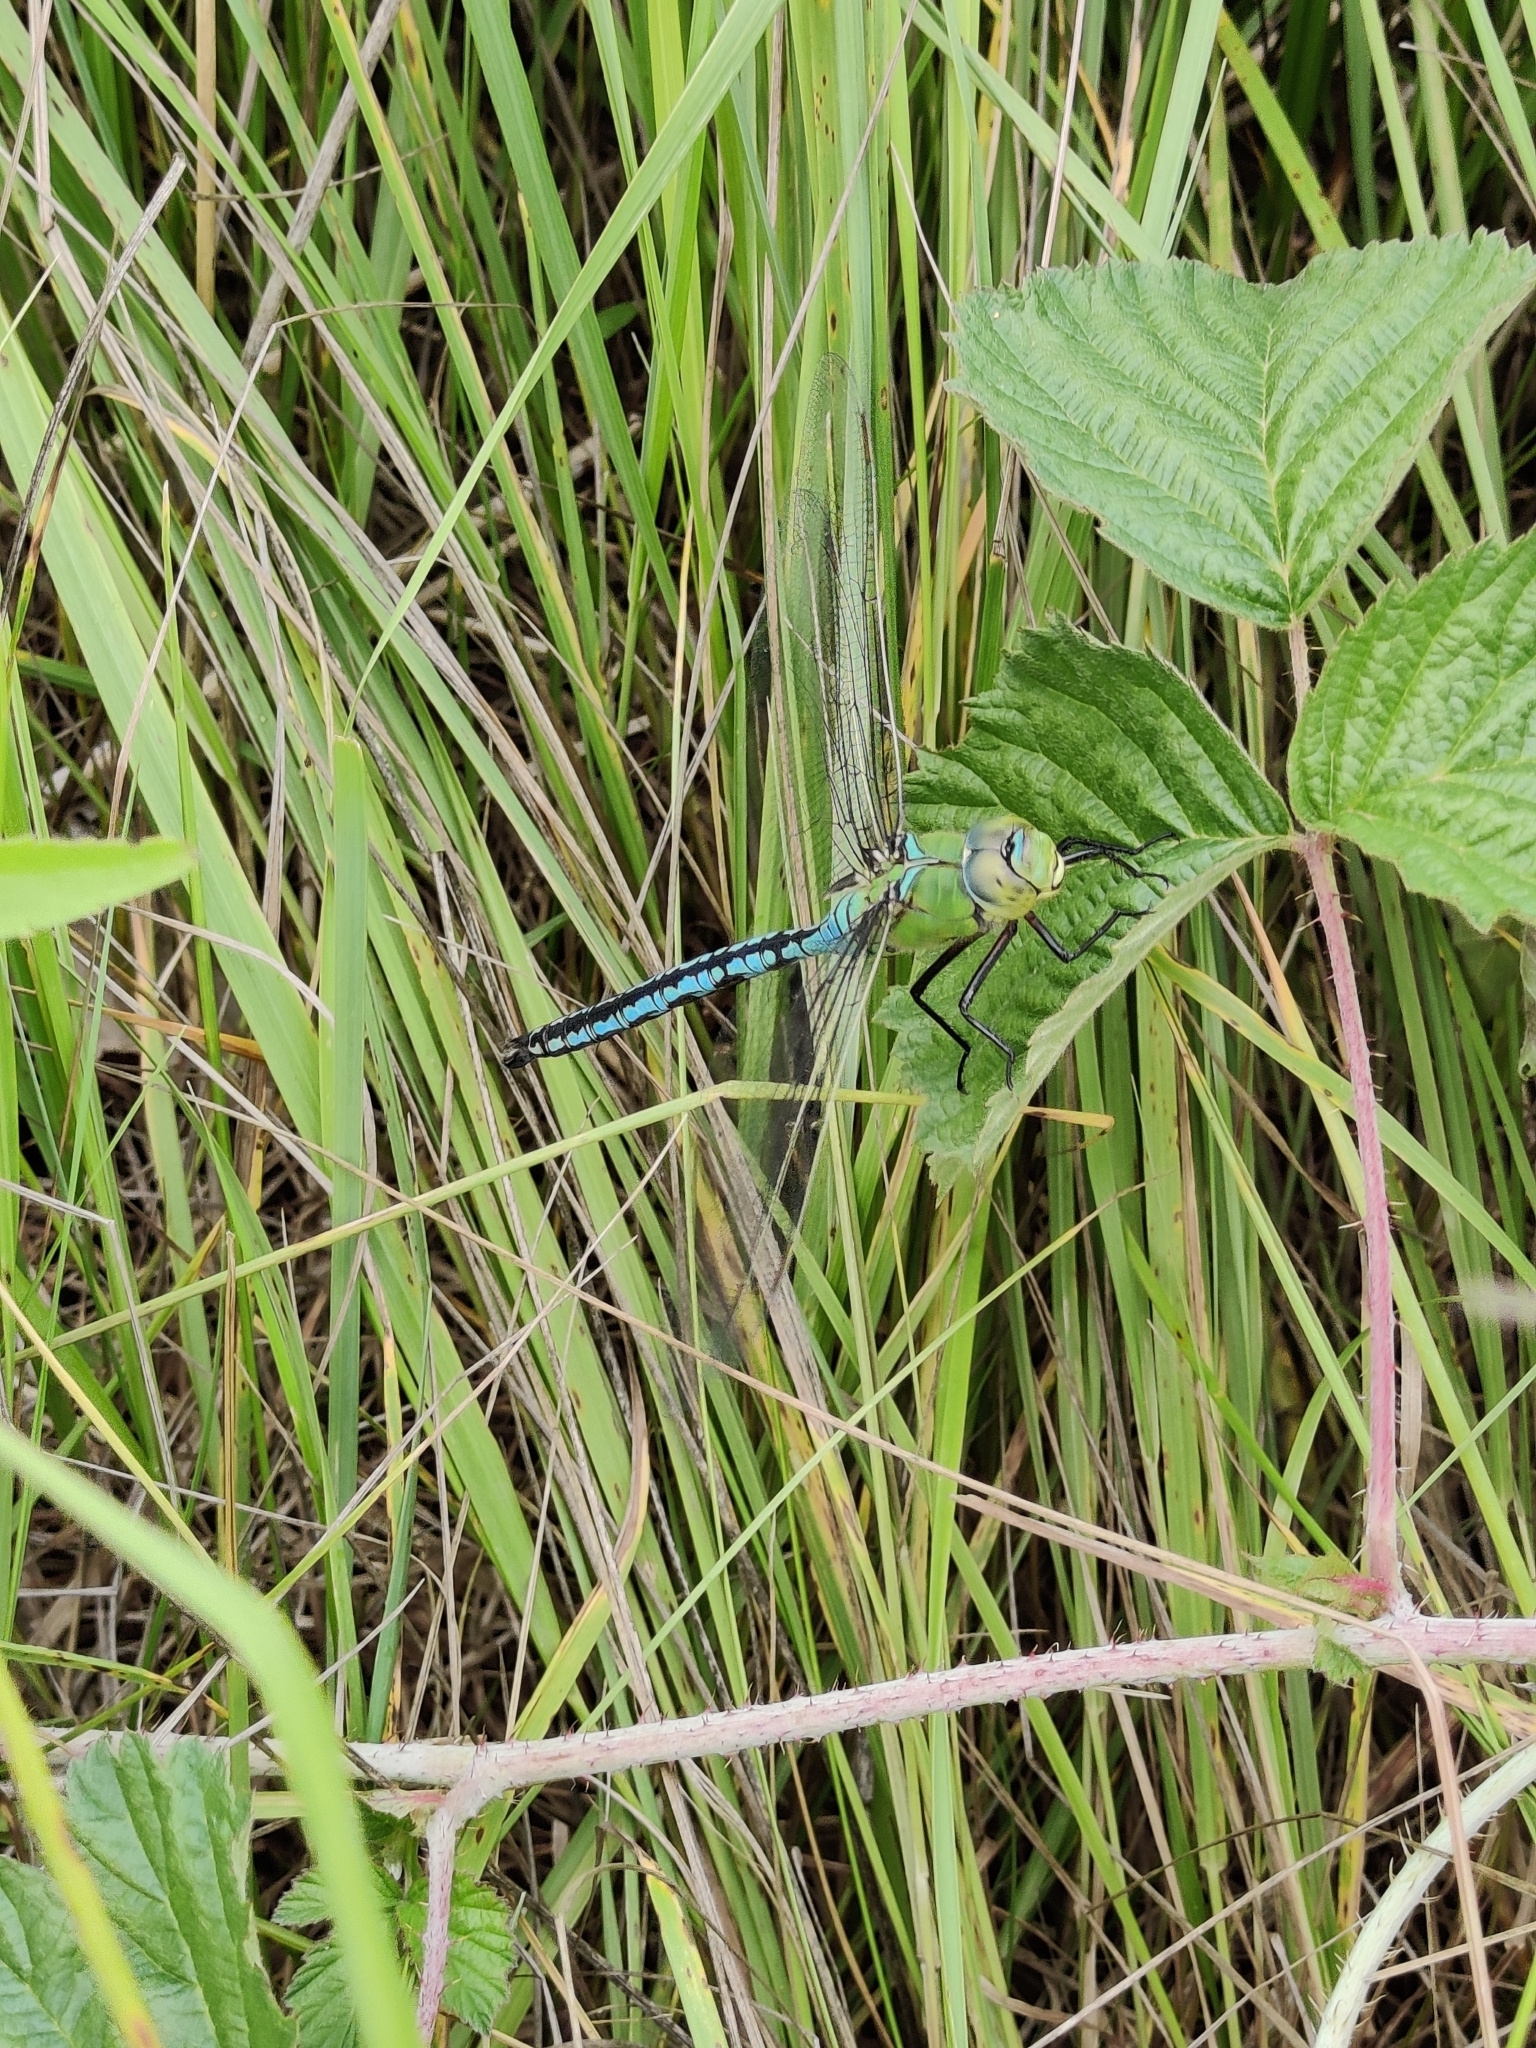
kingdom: Animalia
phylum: Arthropoda
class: Insecta
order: Odonata
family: Aeshnidae
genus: Anax
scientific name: Anax imperator
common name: Emperor dragonfly
